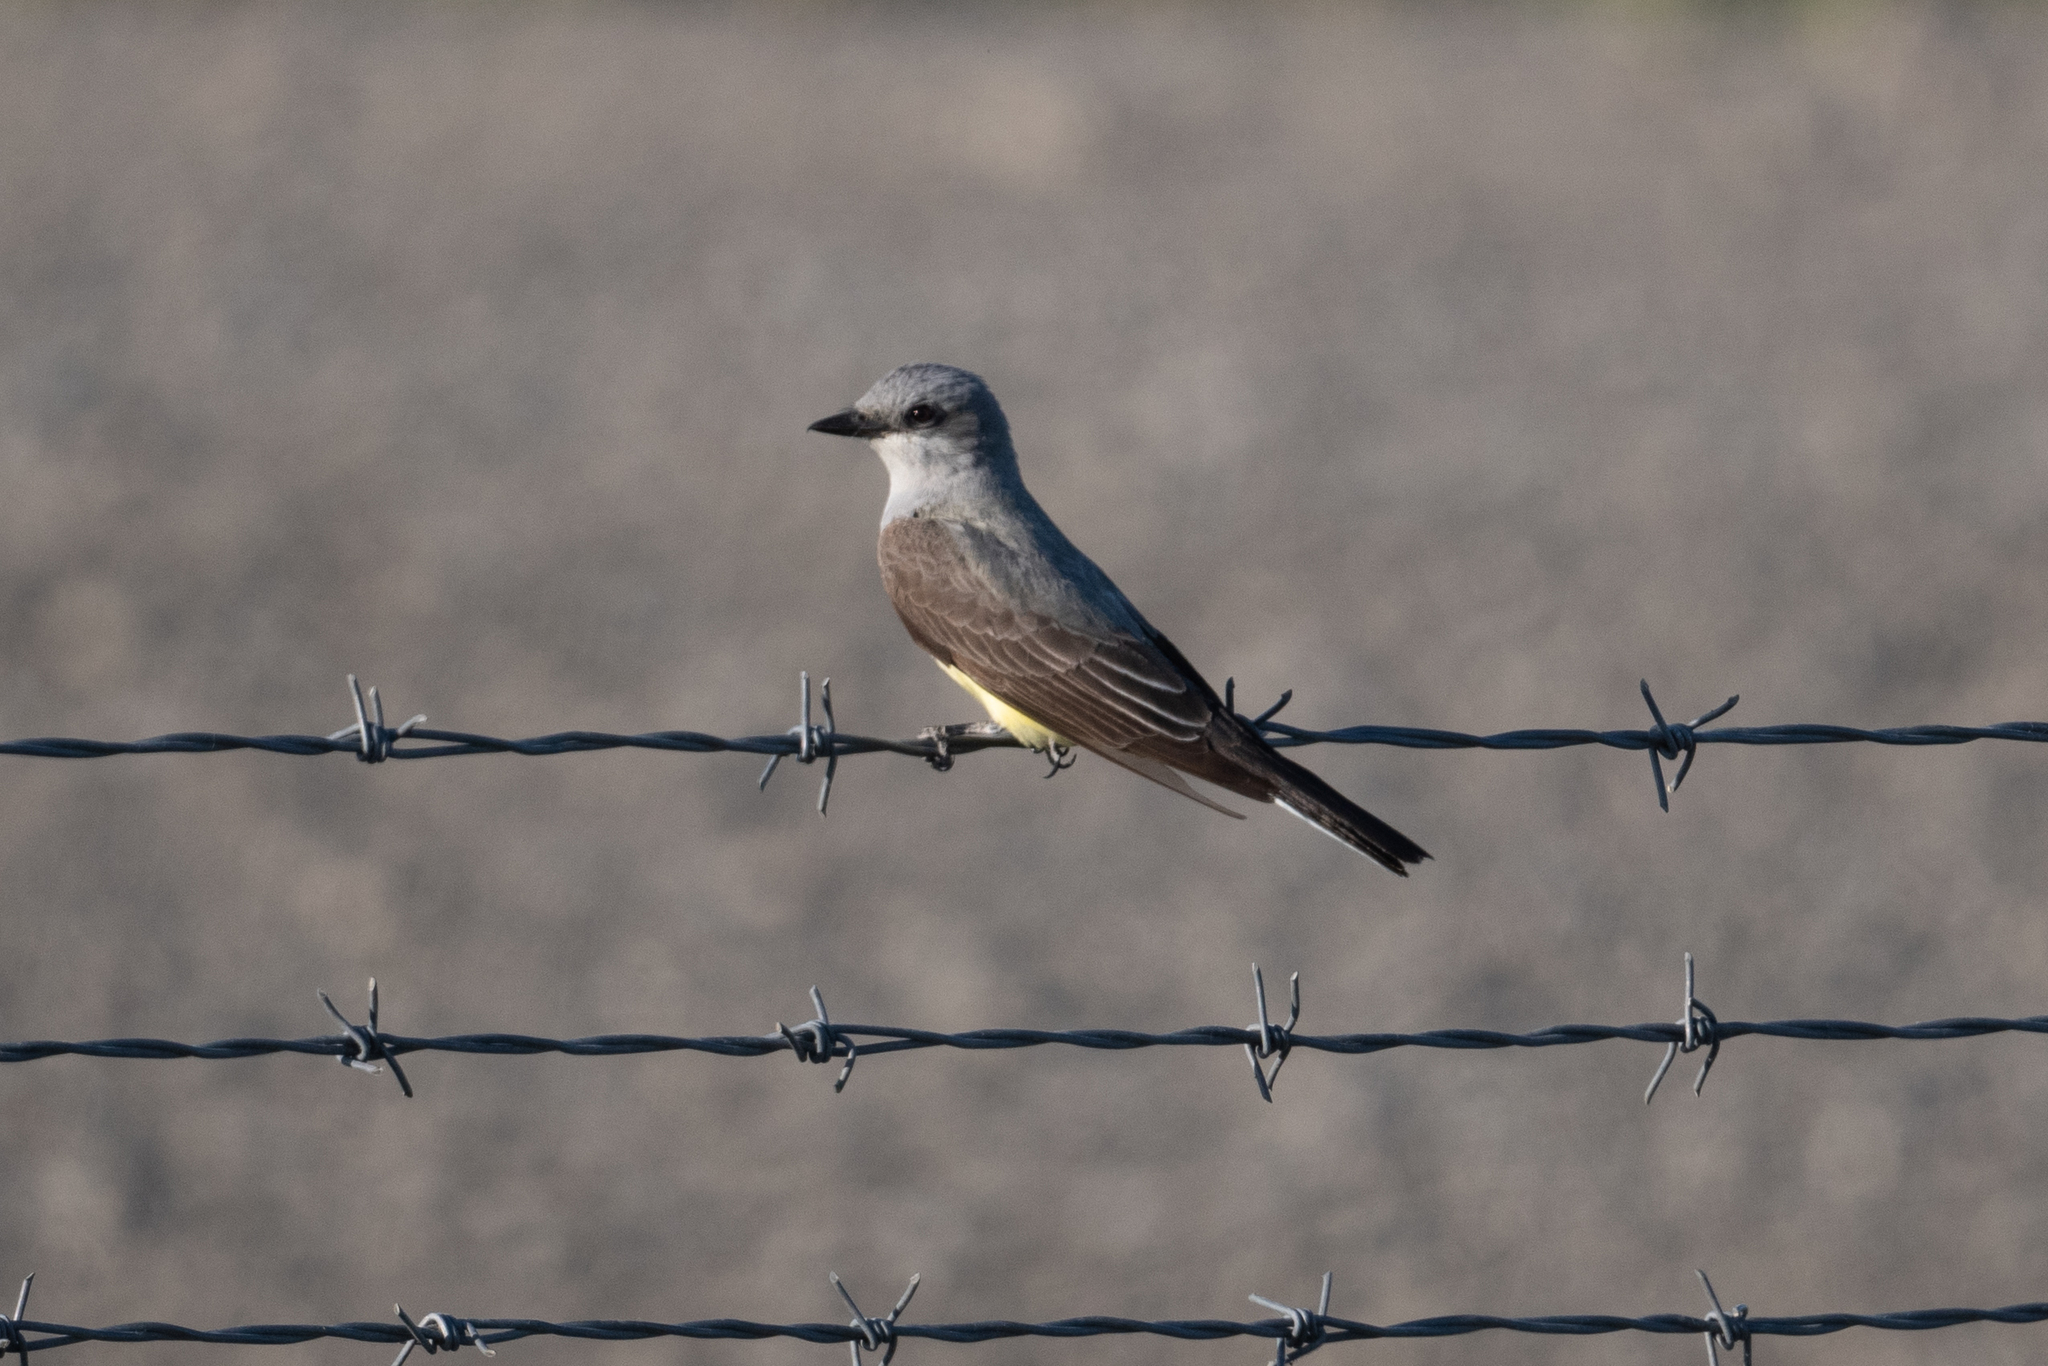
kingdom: Animalia
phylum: Chordata
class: Aves
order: Passeriformes
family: Tyrannidae
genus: Tyrannus
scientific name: Tyrannus verticalis
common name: Western kingbird
